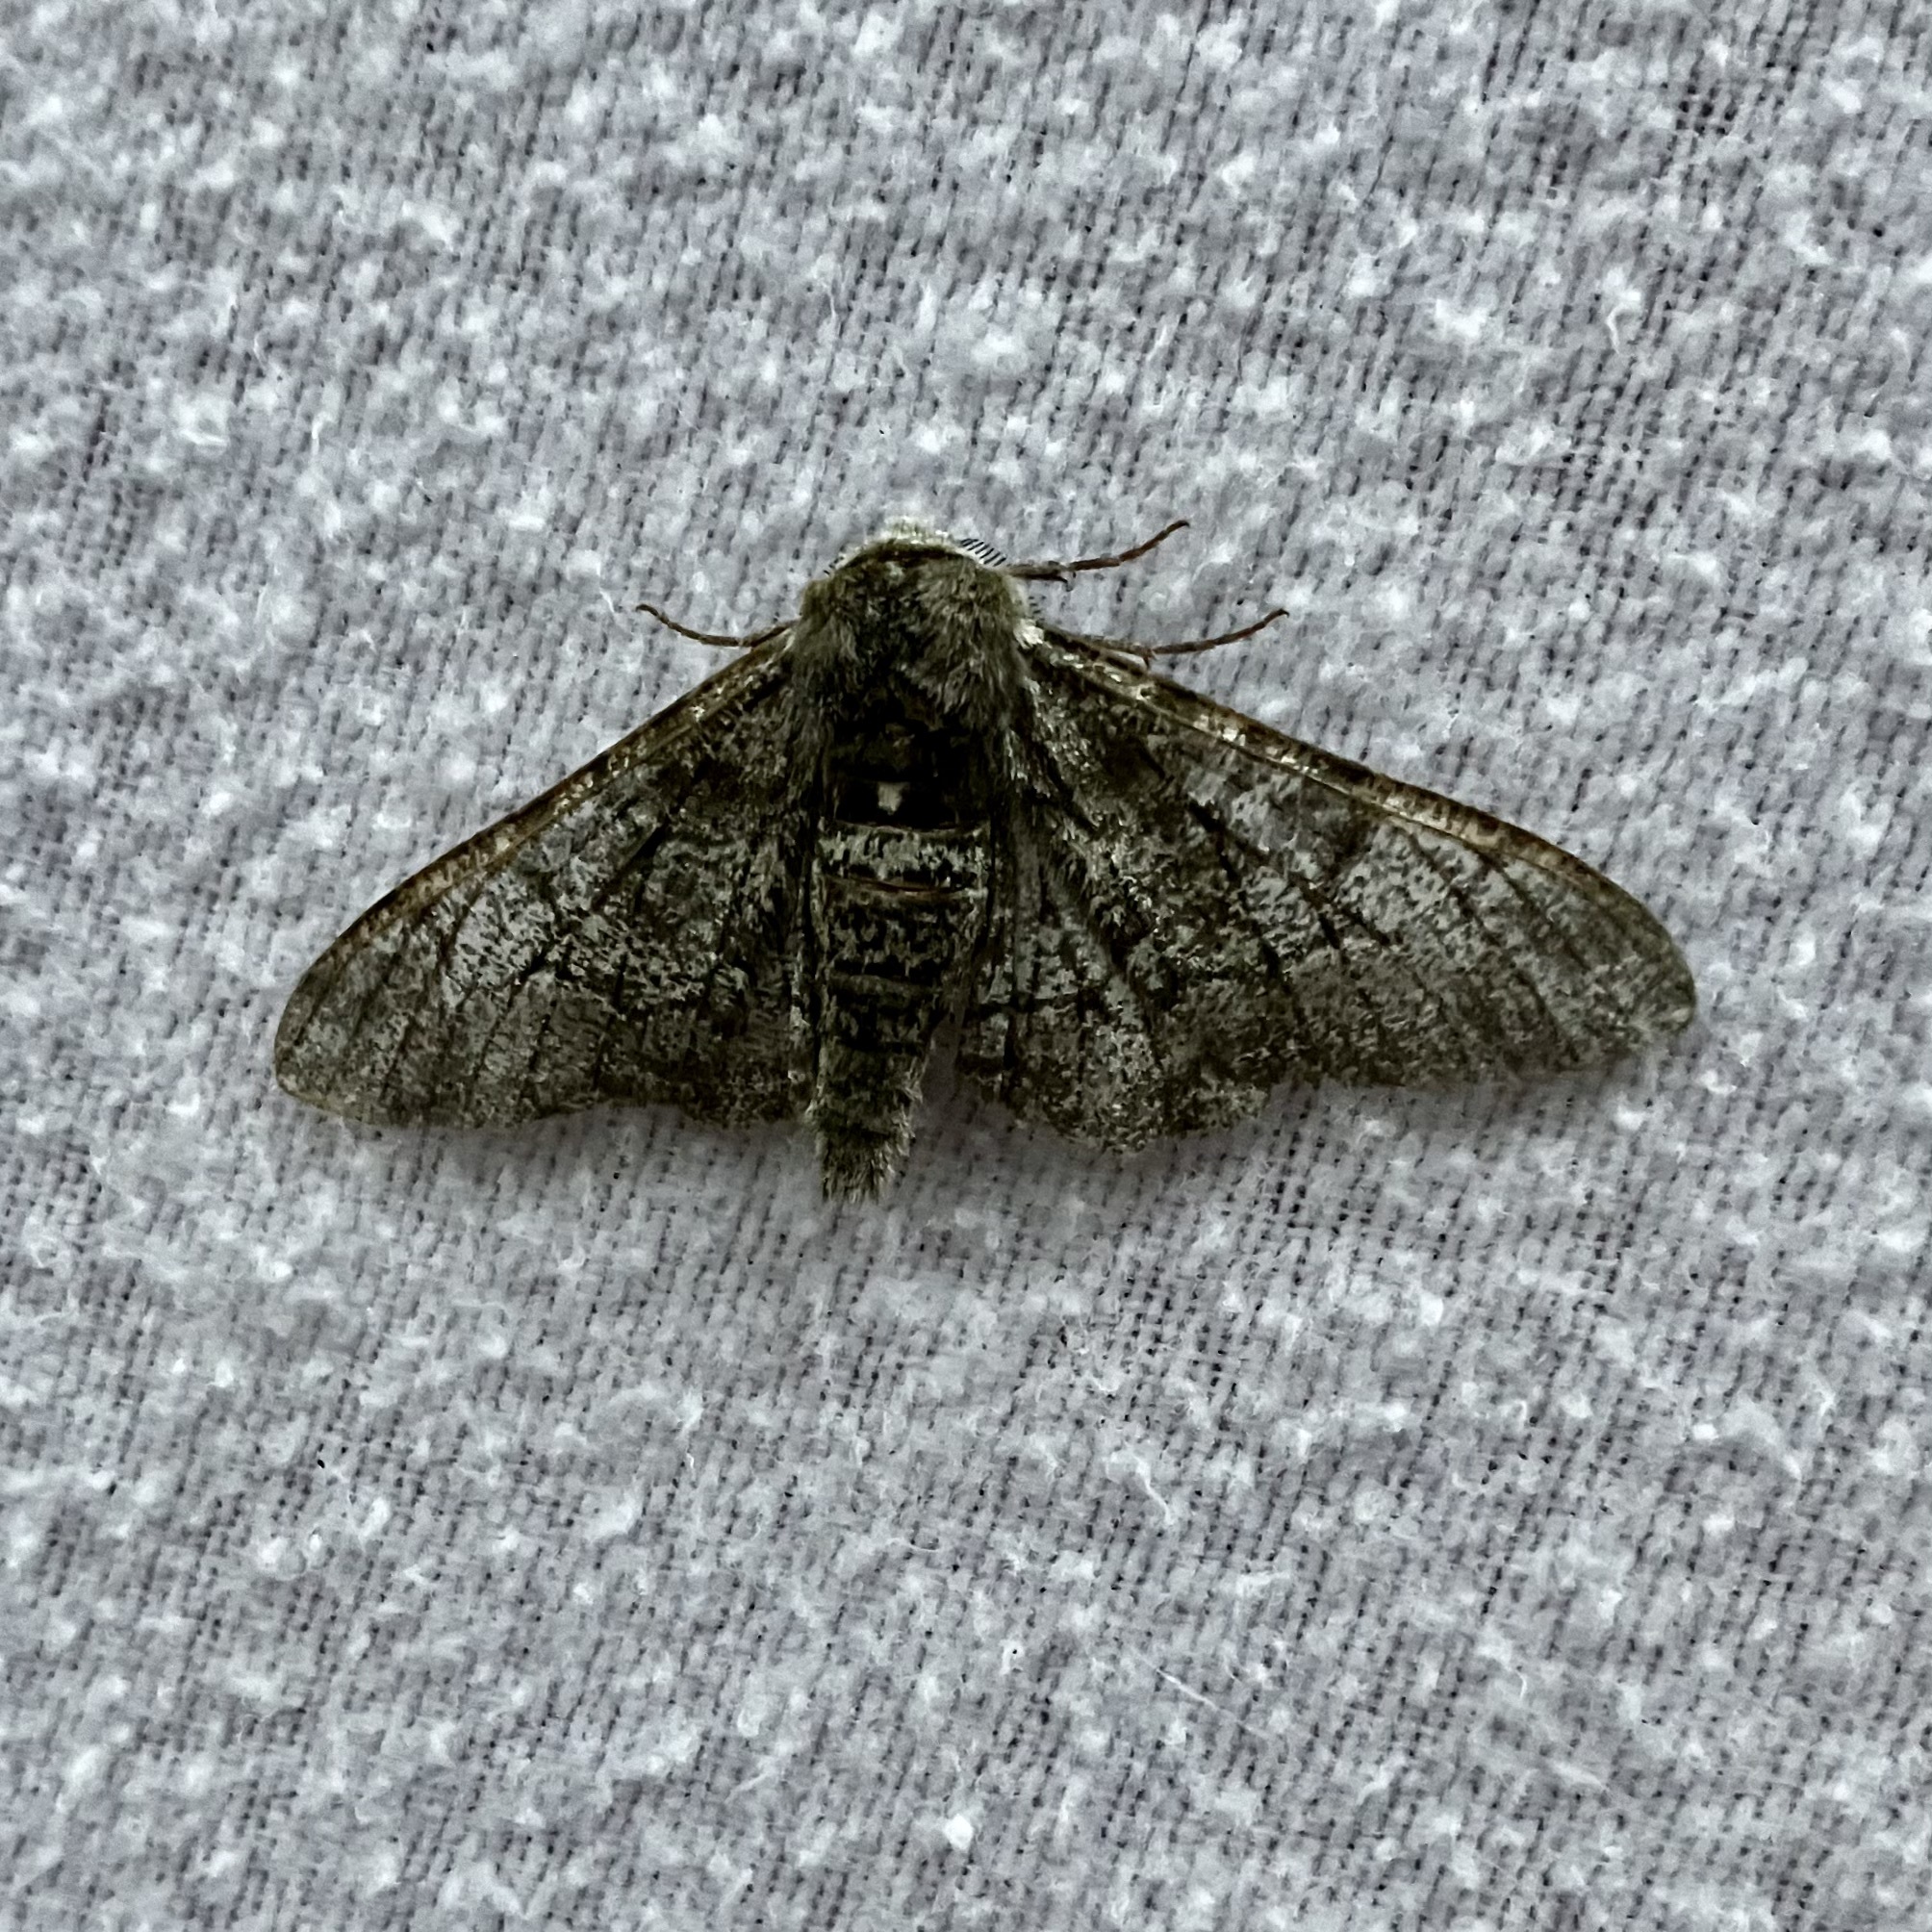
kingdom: Animalia
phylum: Arthropoda
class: Insecta
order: Lepidoptera
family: Geometridae
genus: Biston
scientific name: Biston betularia
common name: Peppered moth
